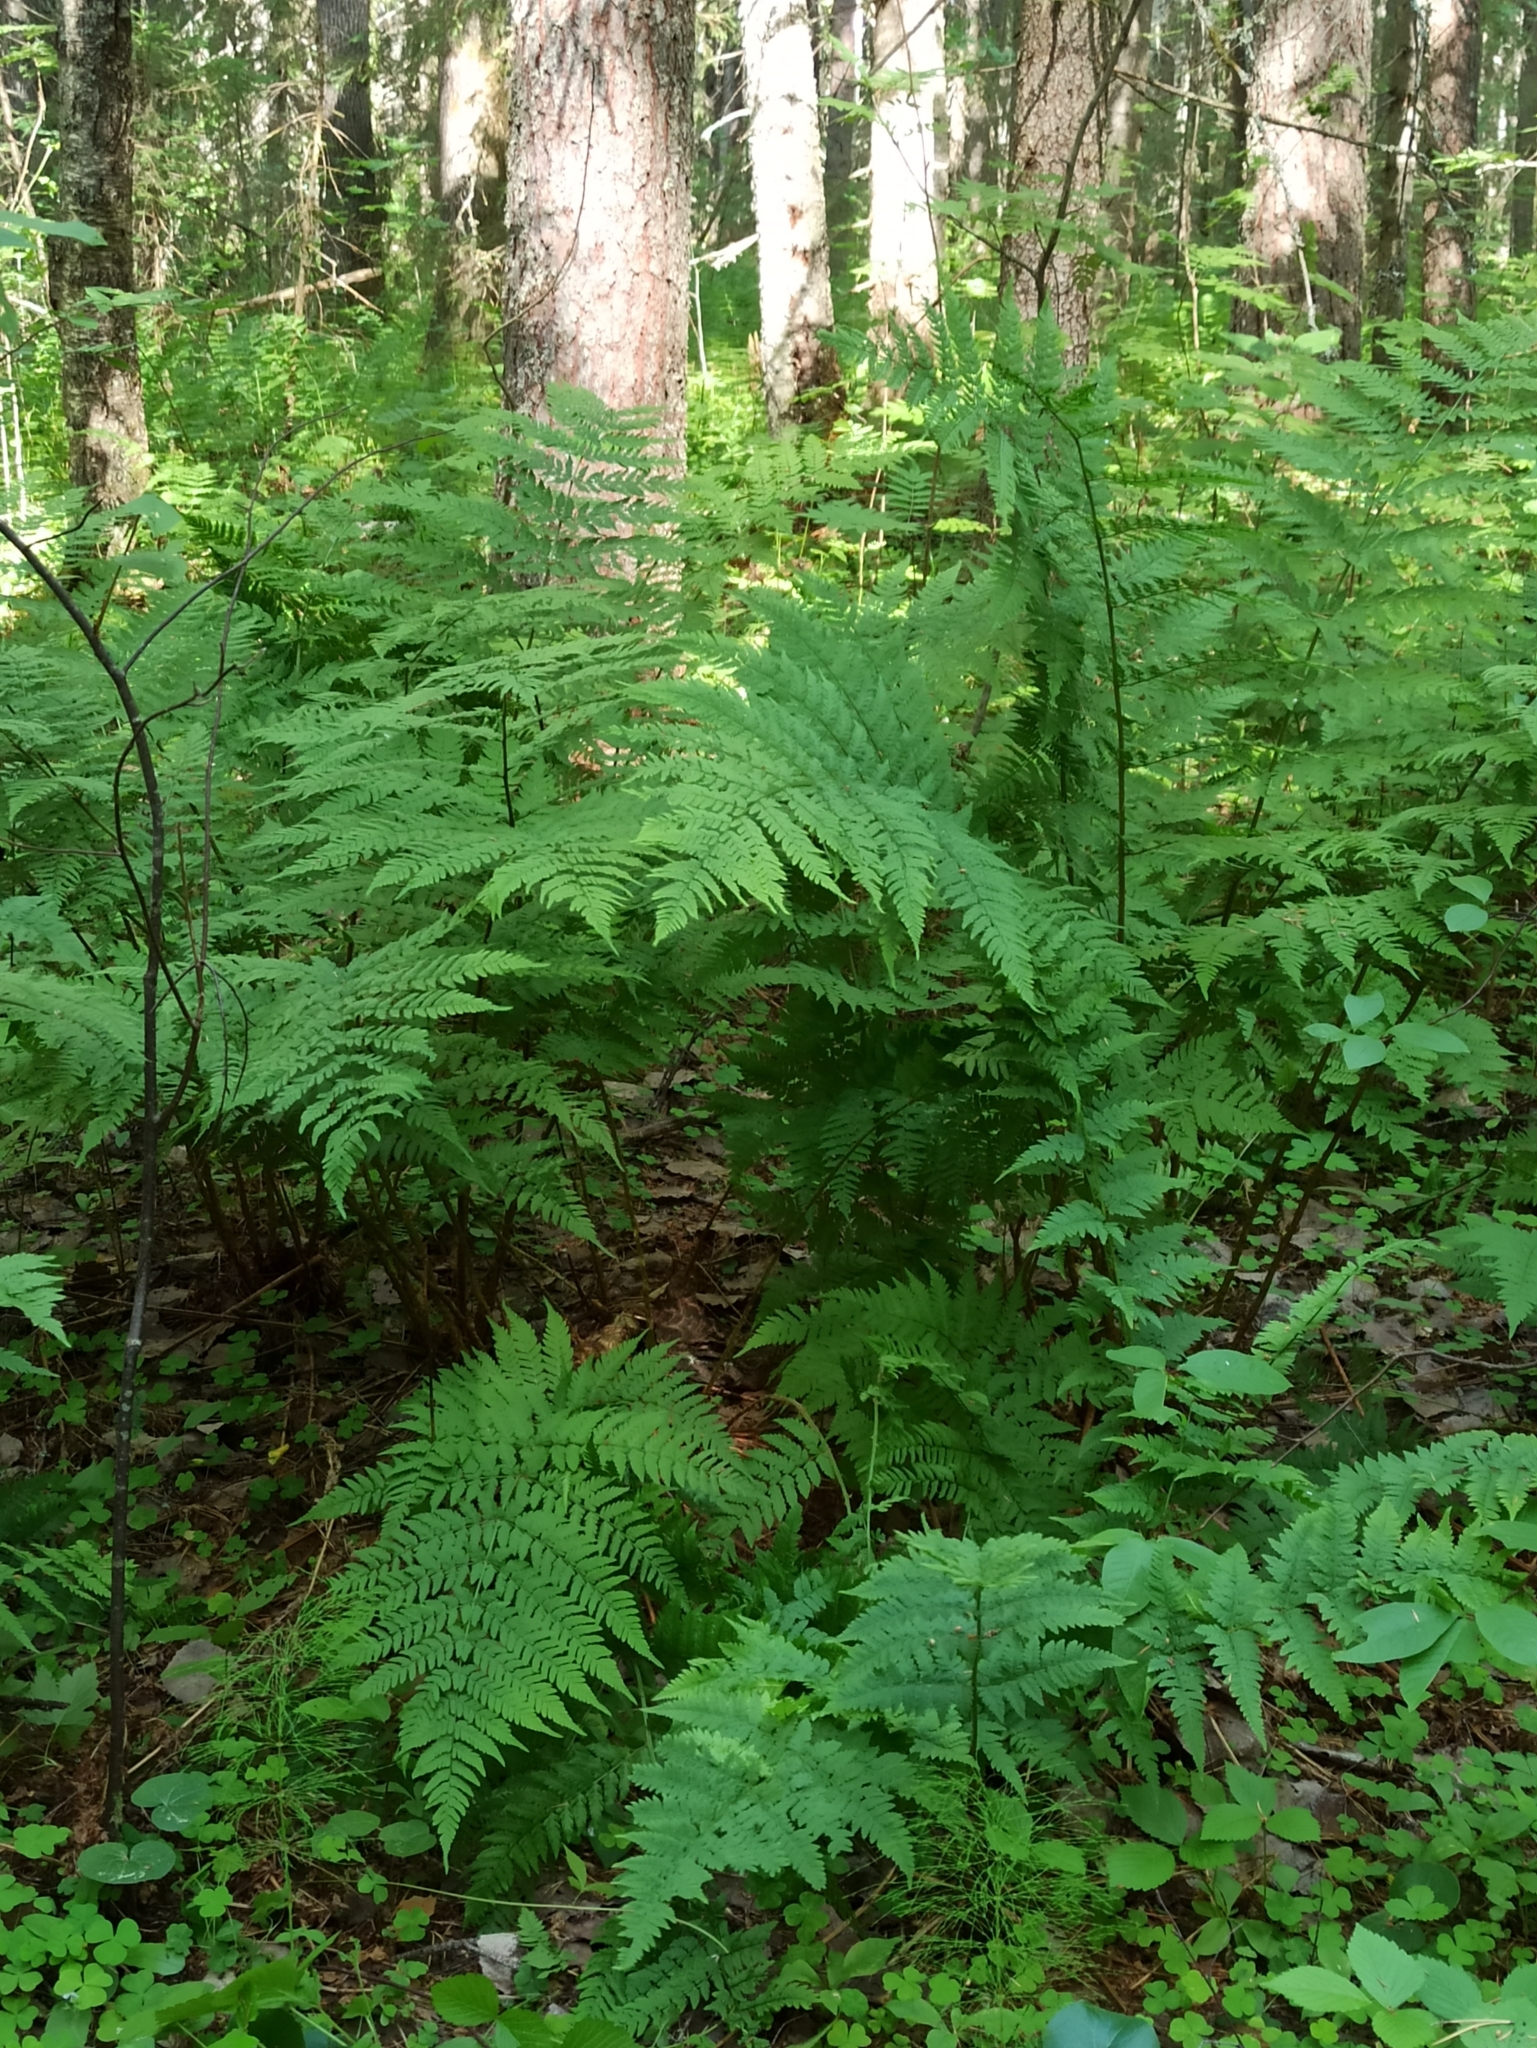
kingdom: Plantae
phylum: Tracheophyta
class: Polypodiopsida
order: Polypodiales
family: Dryopteridaceae
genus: Dryopteris
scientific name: Dryopteris carthusiana
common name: Narrow buckler-fern
